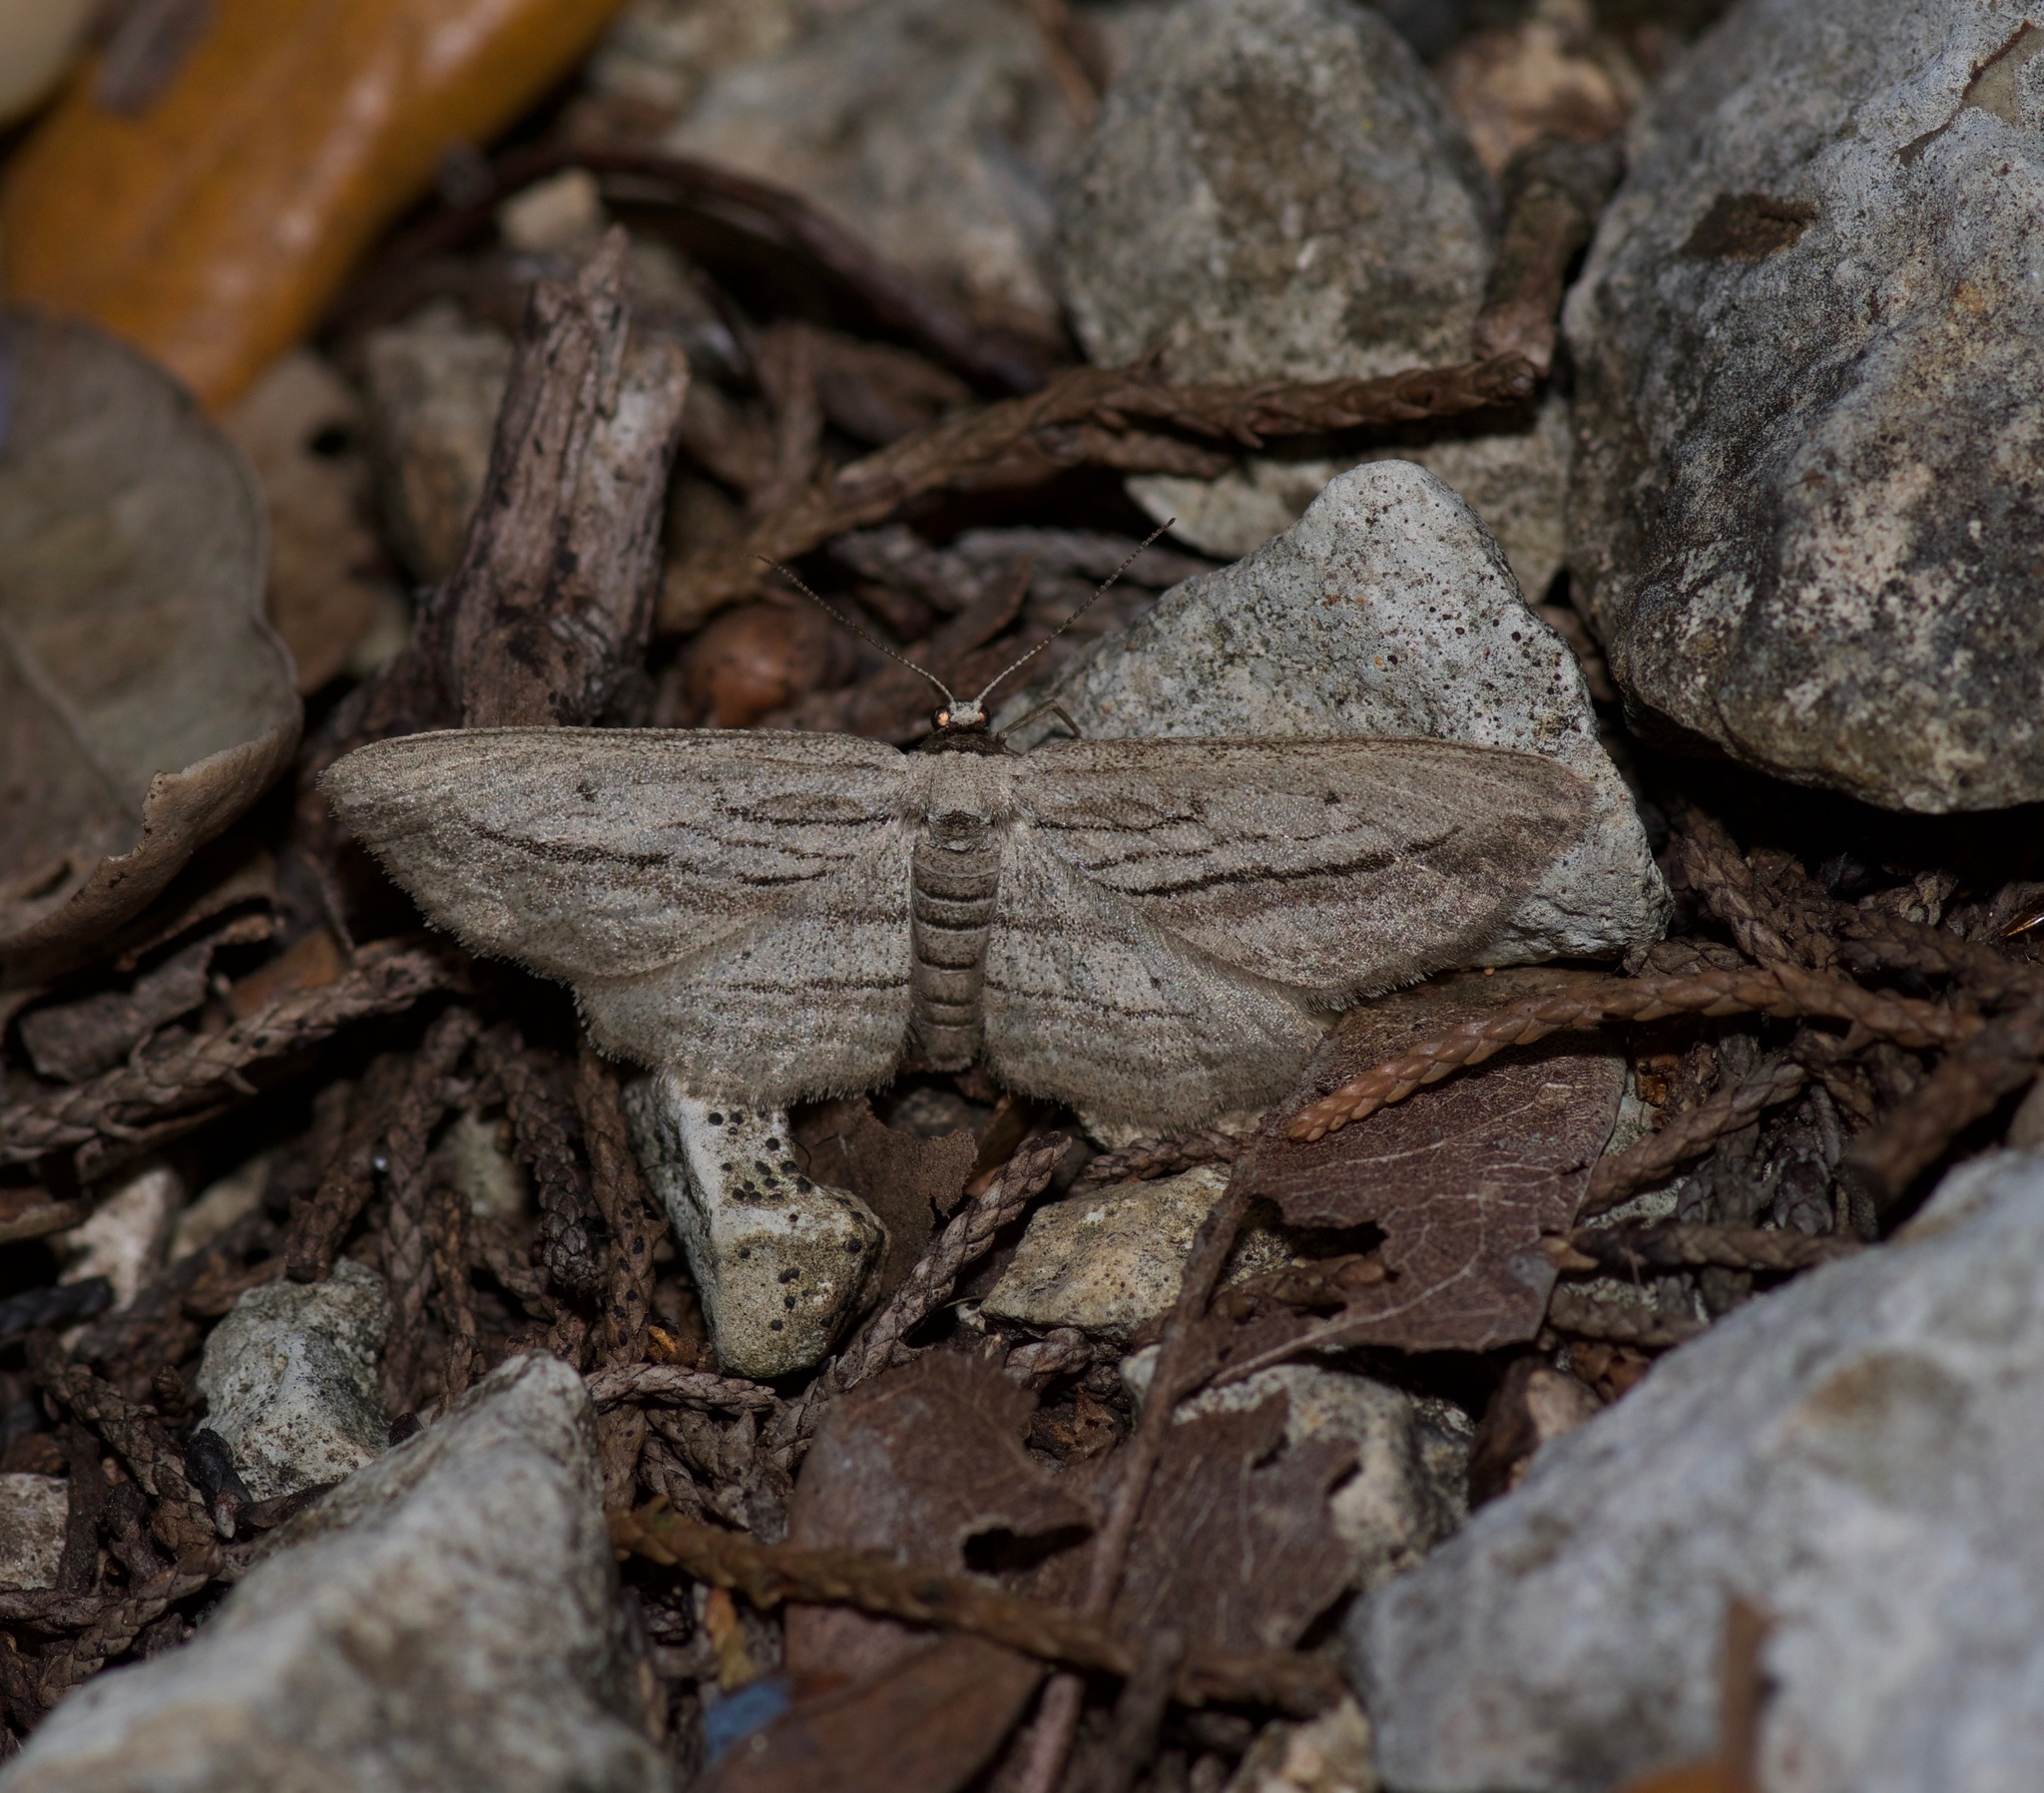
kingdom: Animalia
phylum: Arthropoda
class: Insecta
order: Lepidoptera
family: Geometridae
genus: Glena
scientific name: Glena quinquelinearia
